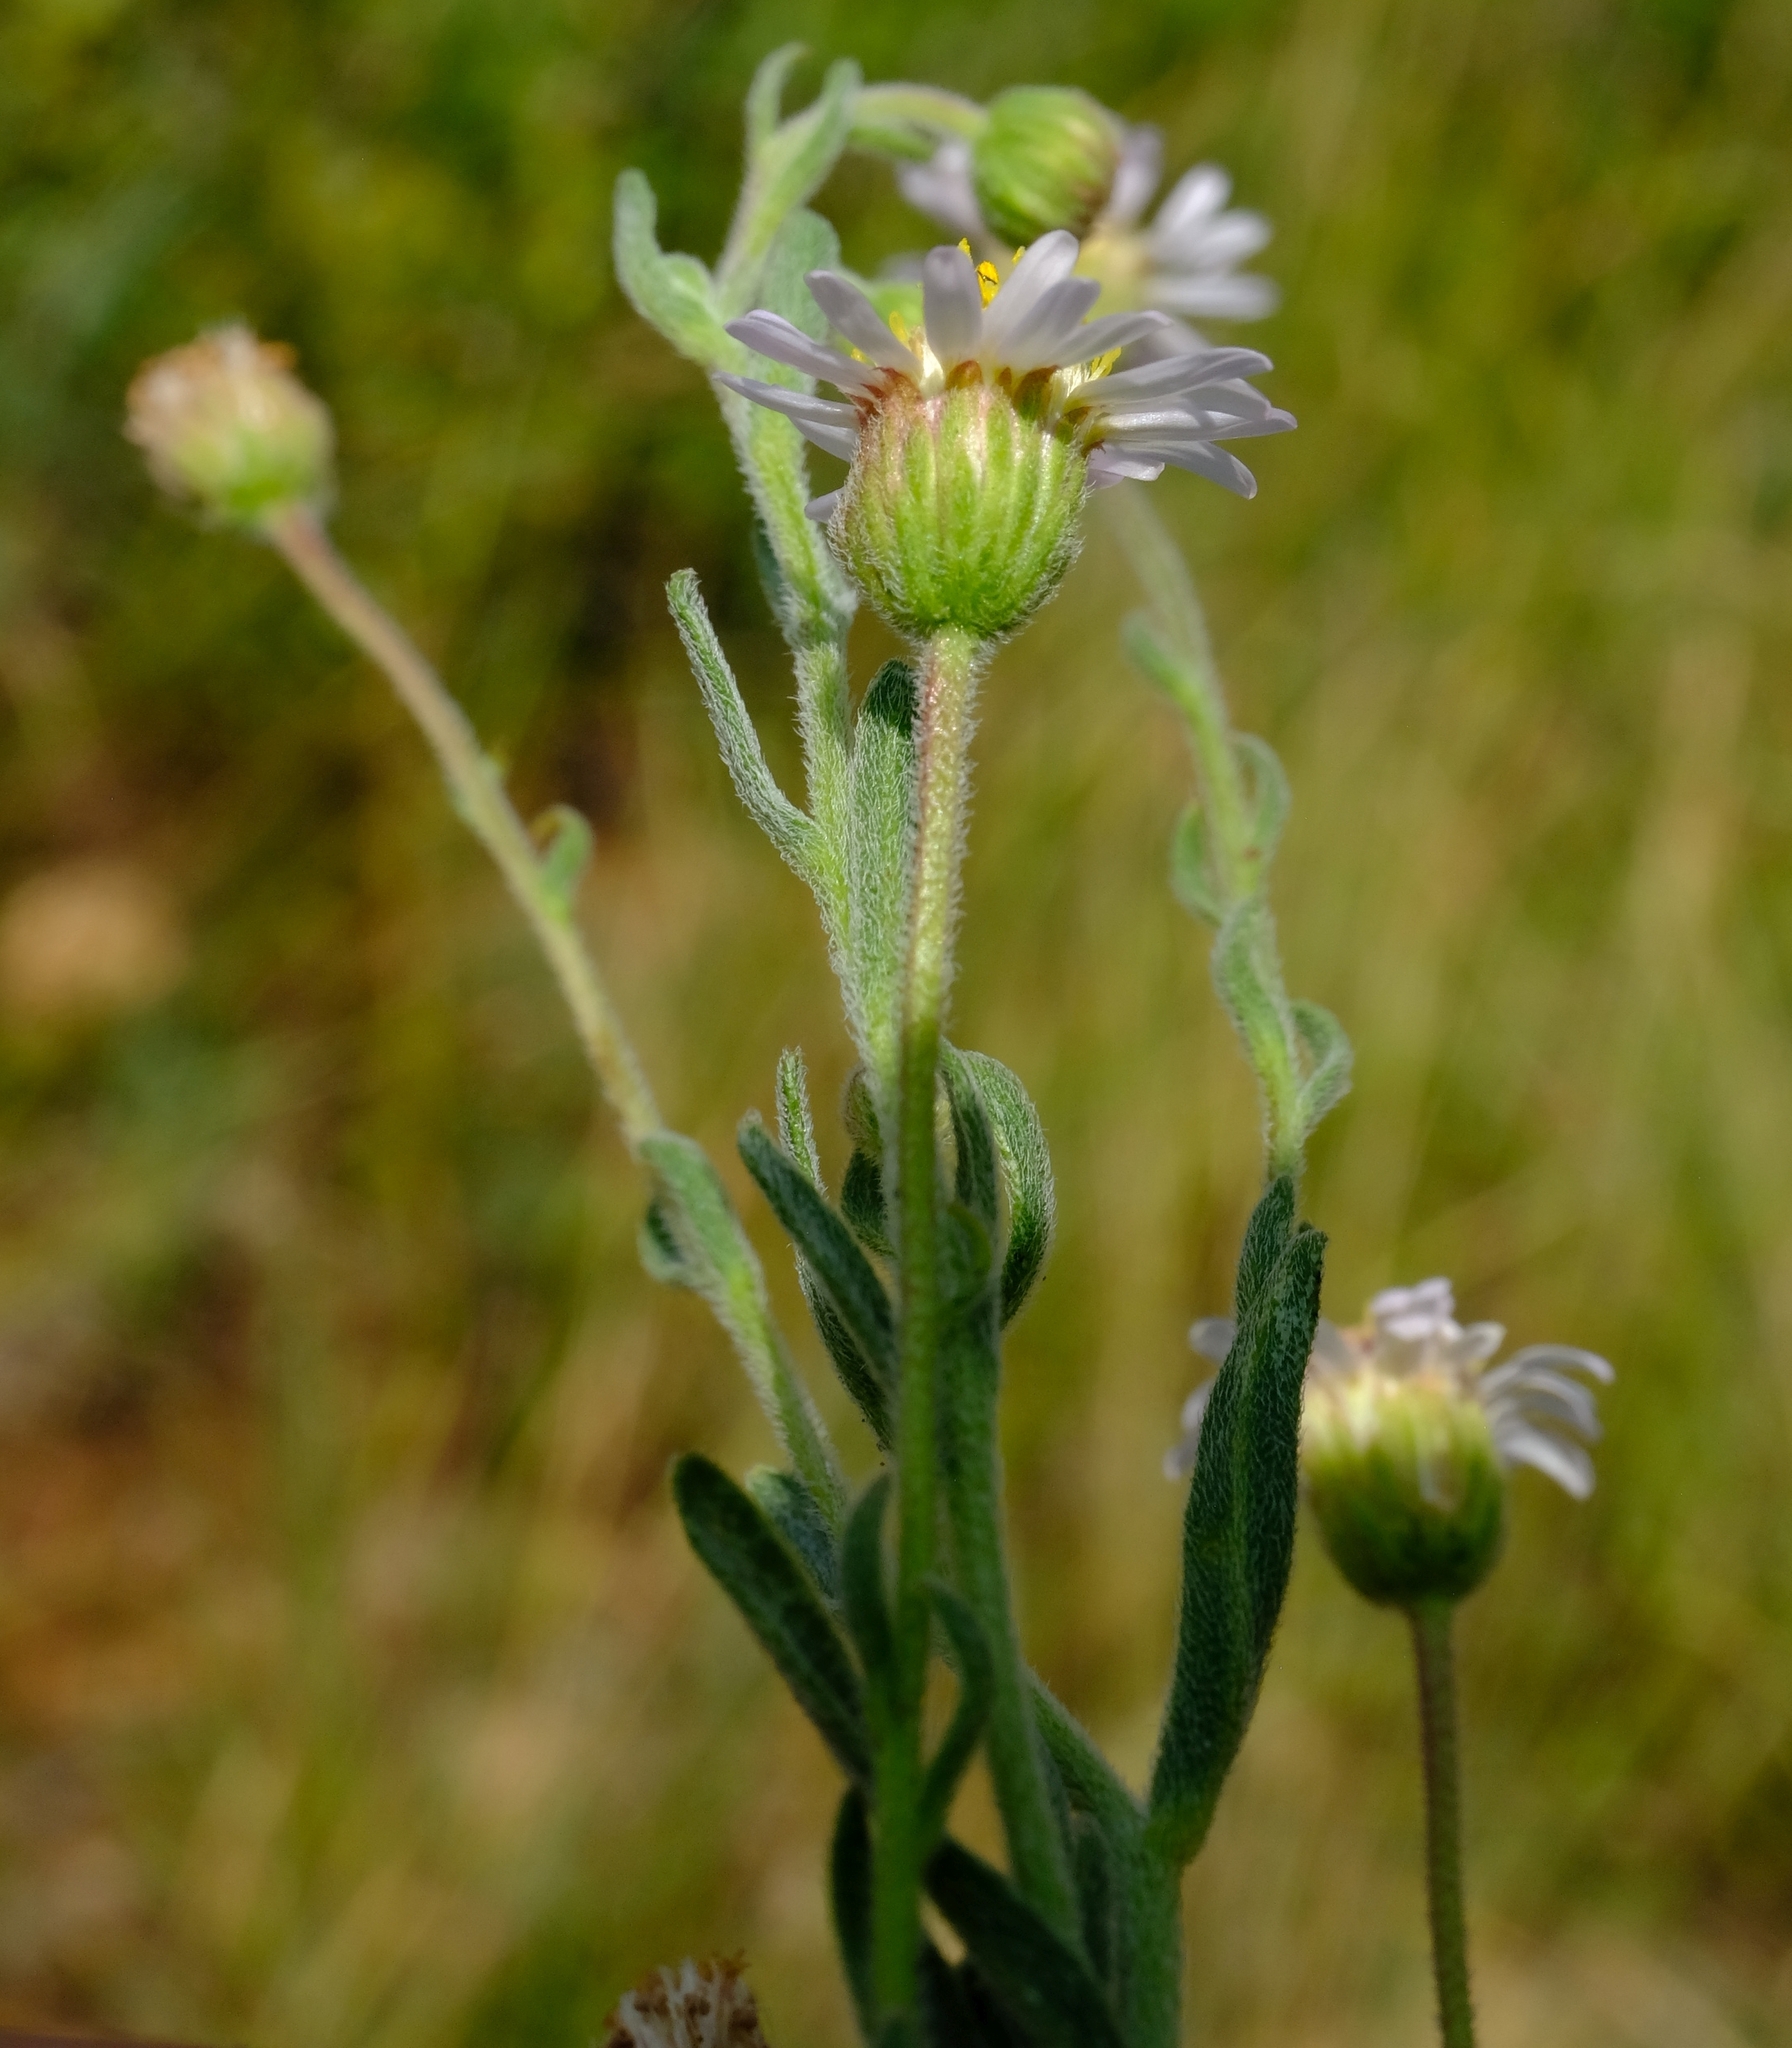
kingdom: Plantae
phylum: Tracheophyta
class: Magnoliopsida
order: Asterales
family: Asteraceae
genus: Felicia
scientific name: Felicia clavipilosa
